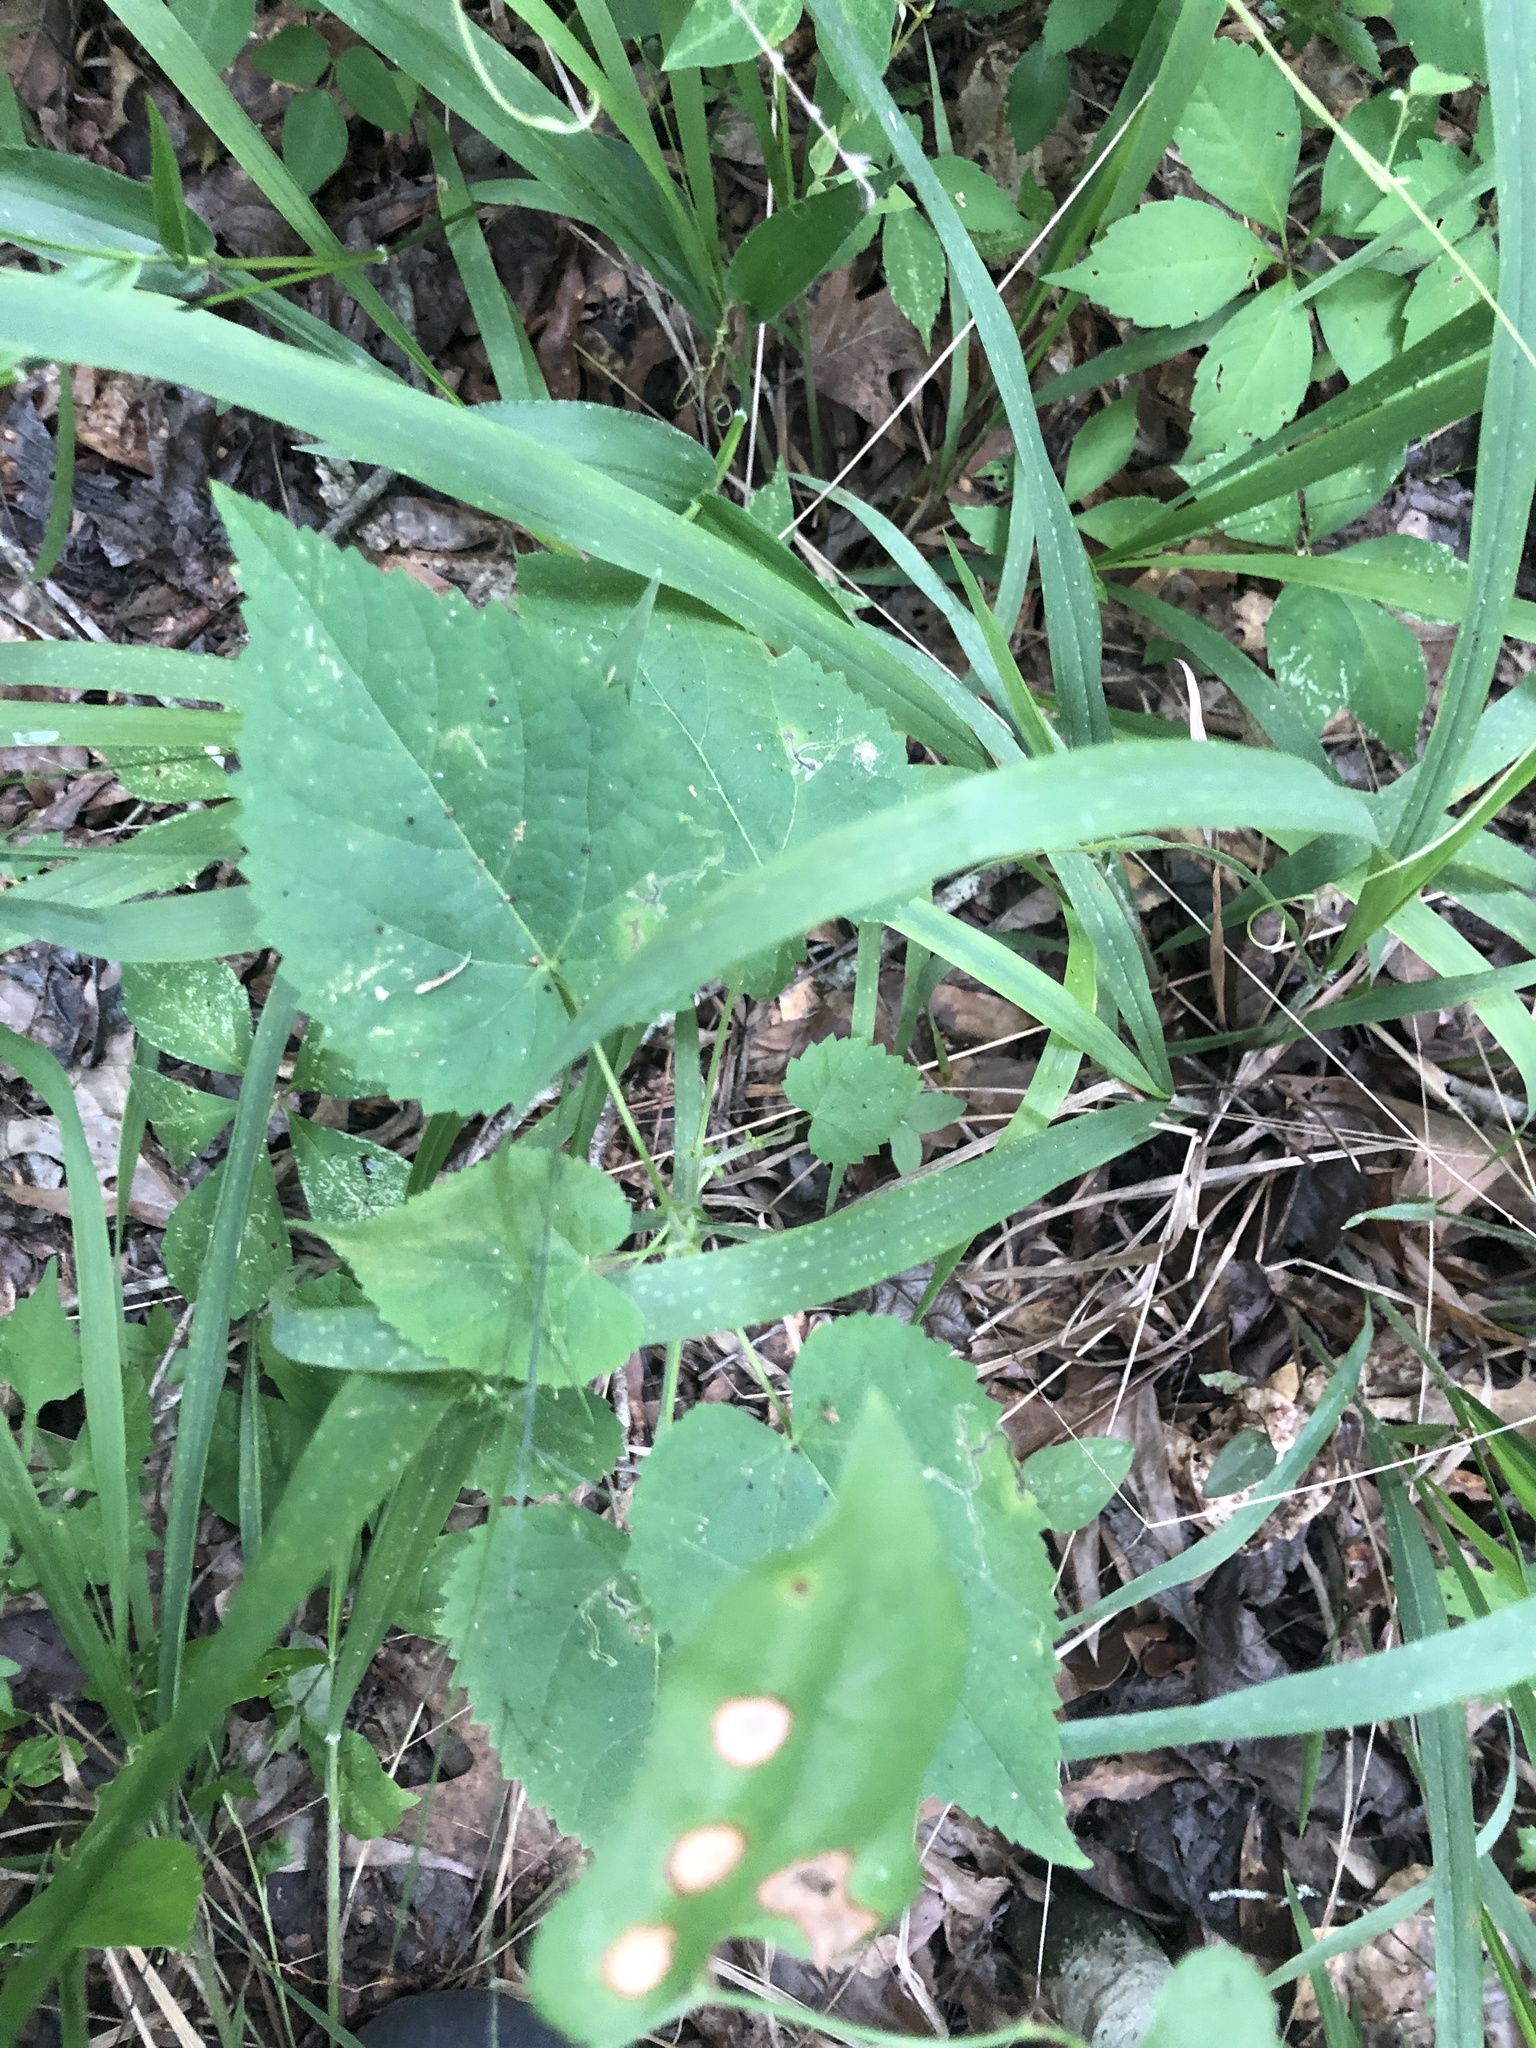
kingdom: Plantae
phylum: Tracheophyta
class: Magnoliopsida
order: Malpighiales
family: Euphorbiaceae
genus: Tragia
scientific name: Tragia cordata
